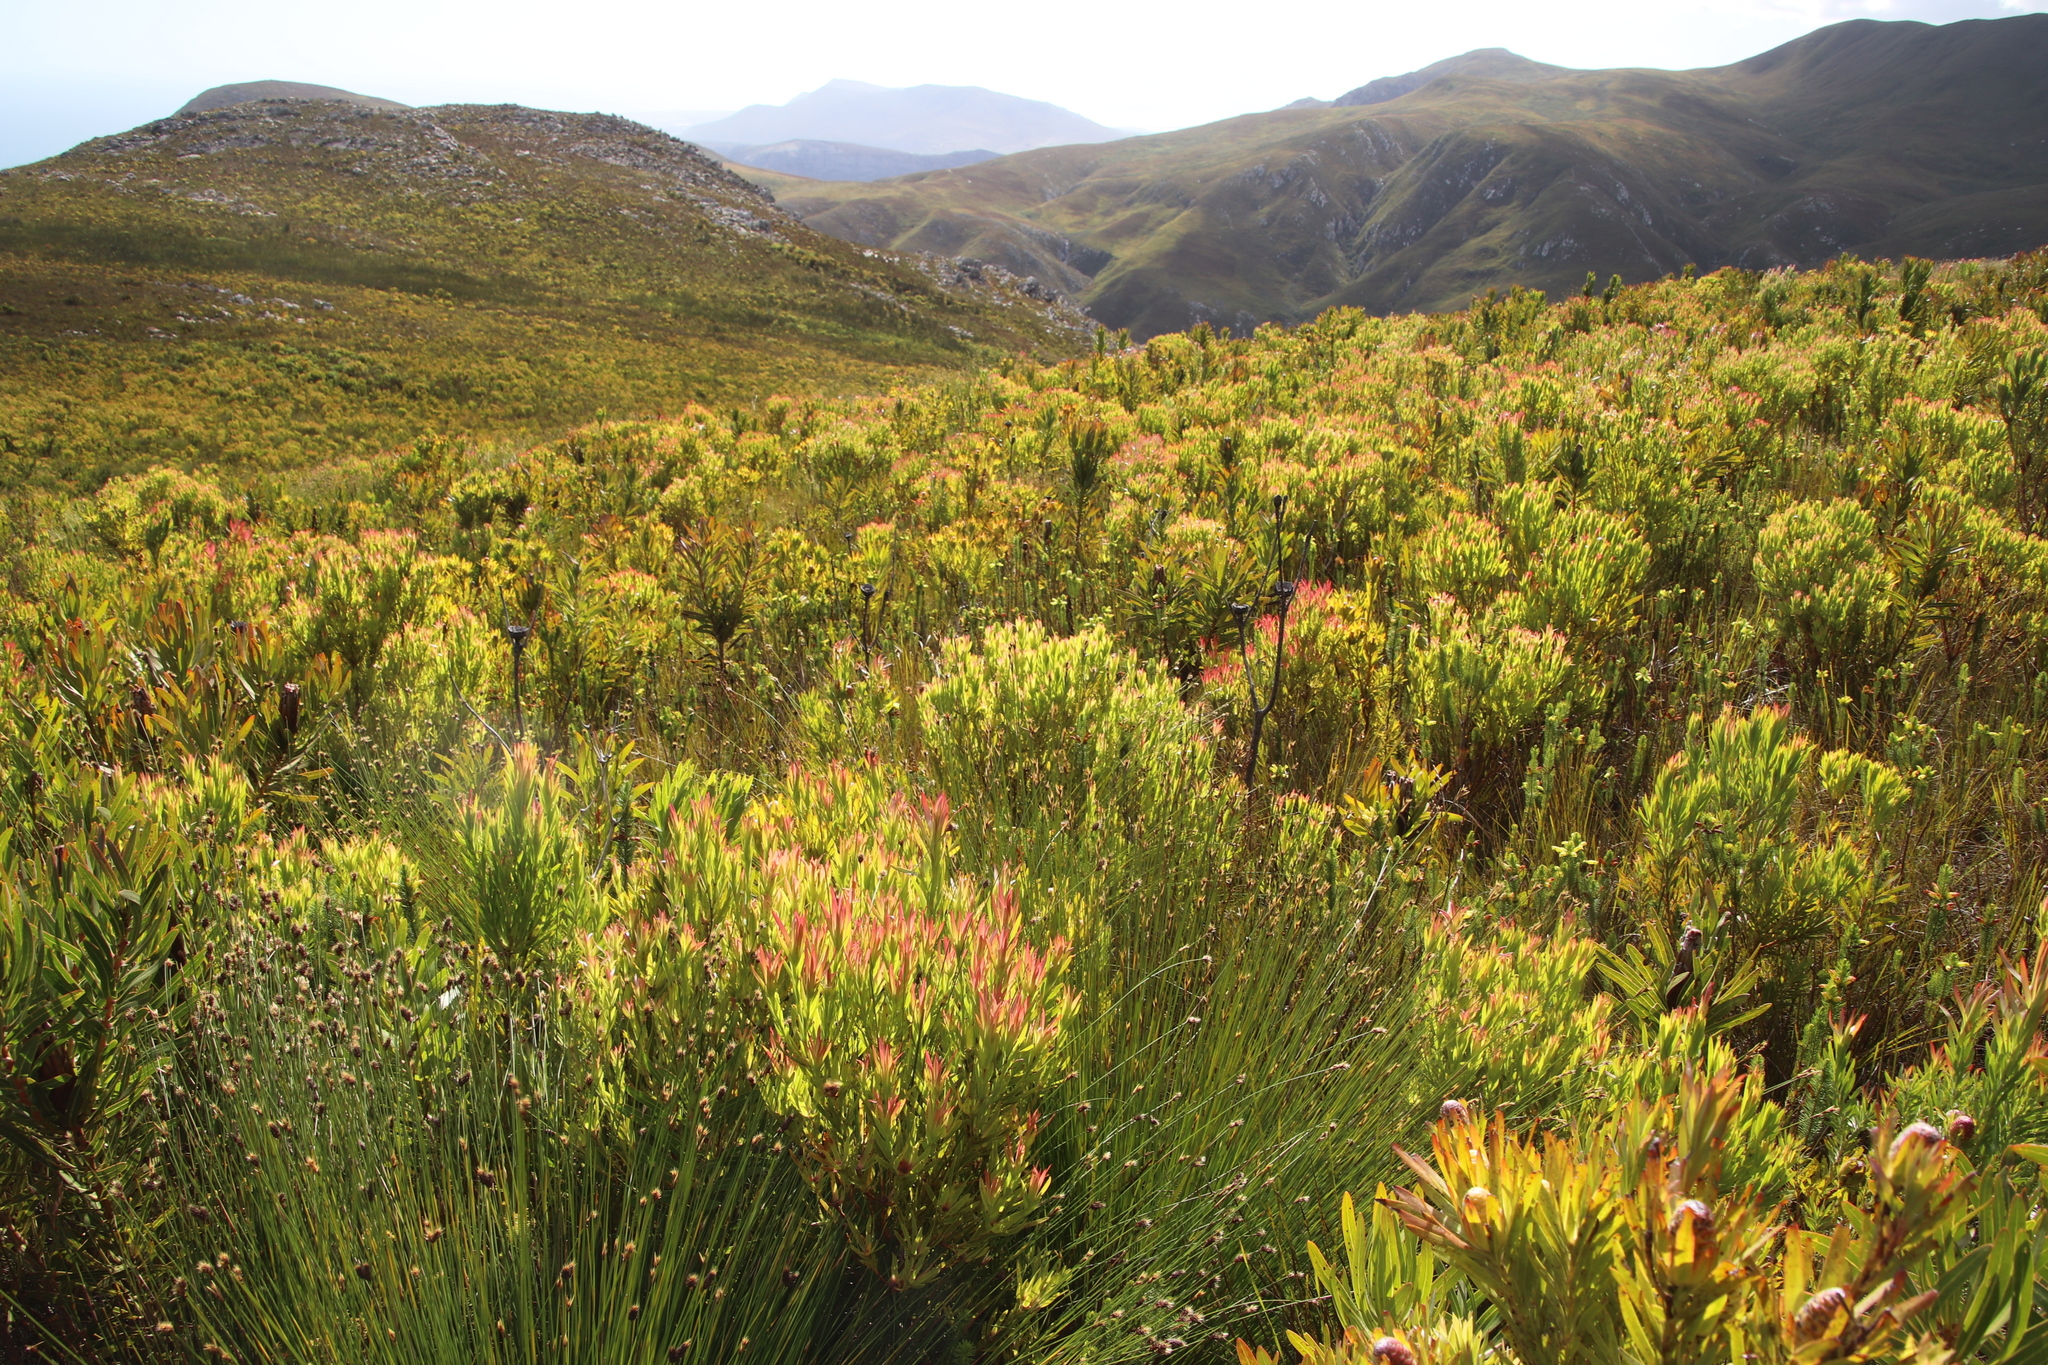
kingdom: Plantae
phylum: Tracheophyta
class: Magnoliopsida
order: Proteales
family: Proteaceae
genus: Leucadendron
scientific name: Leucadendron xanthoconus
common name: Sickle-leaf conebush
